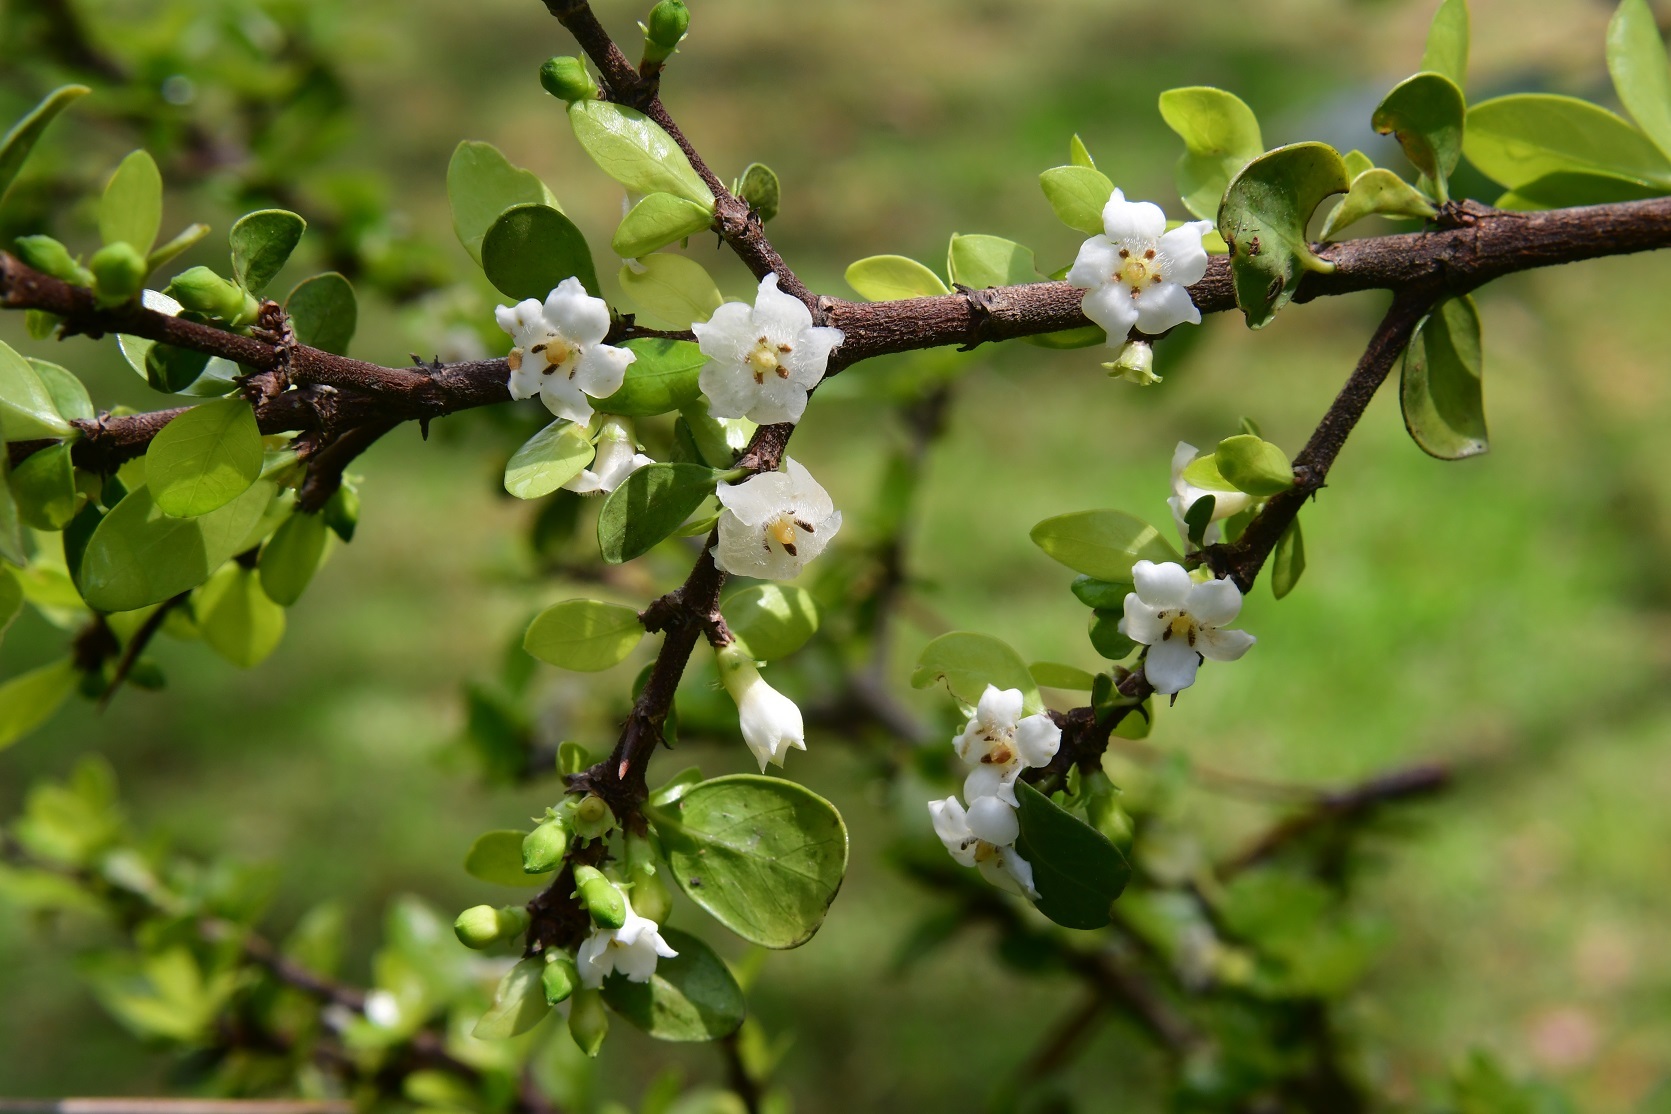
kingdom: Plantae
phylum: Tracheophyta
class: Magnoliopsida
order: Gentianales
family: Rubiaceae
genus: Randia
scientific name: Randia chiapensis
